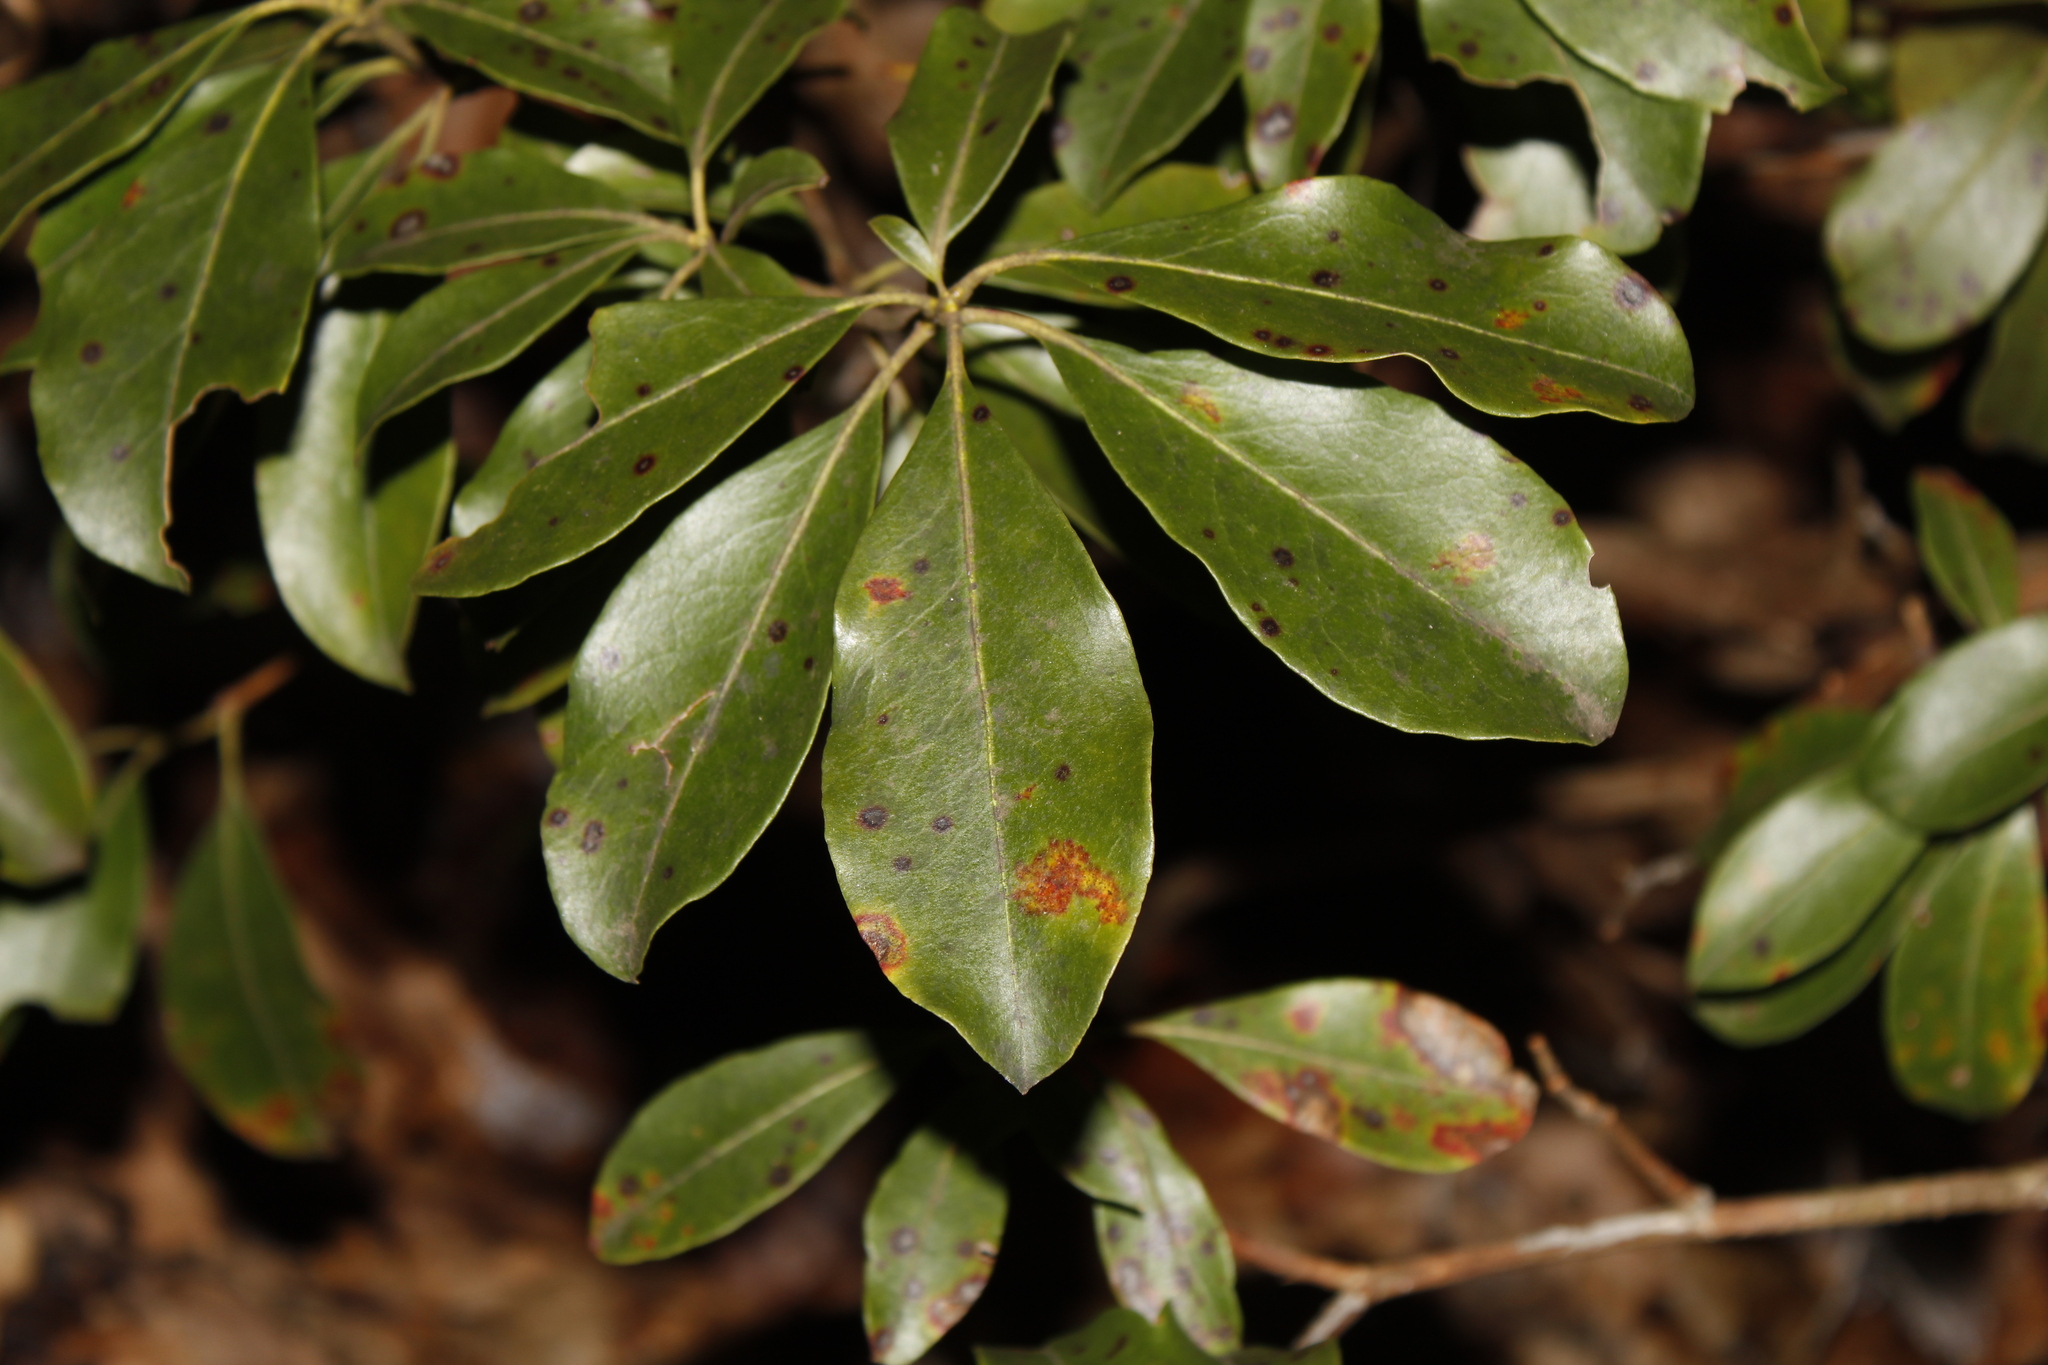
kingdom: Plantae
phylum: Tracheophyta
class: Magnoliopsida
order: Ericales
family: Ericaceae
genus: Kalmia
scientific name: Kalmia latifolia
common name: Mountain-laurel
